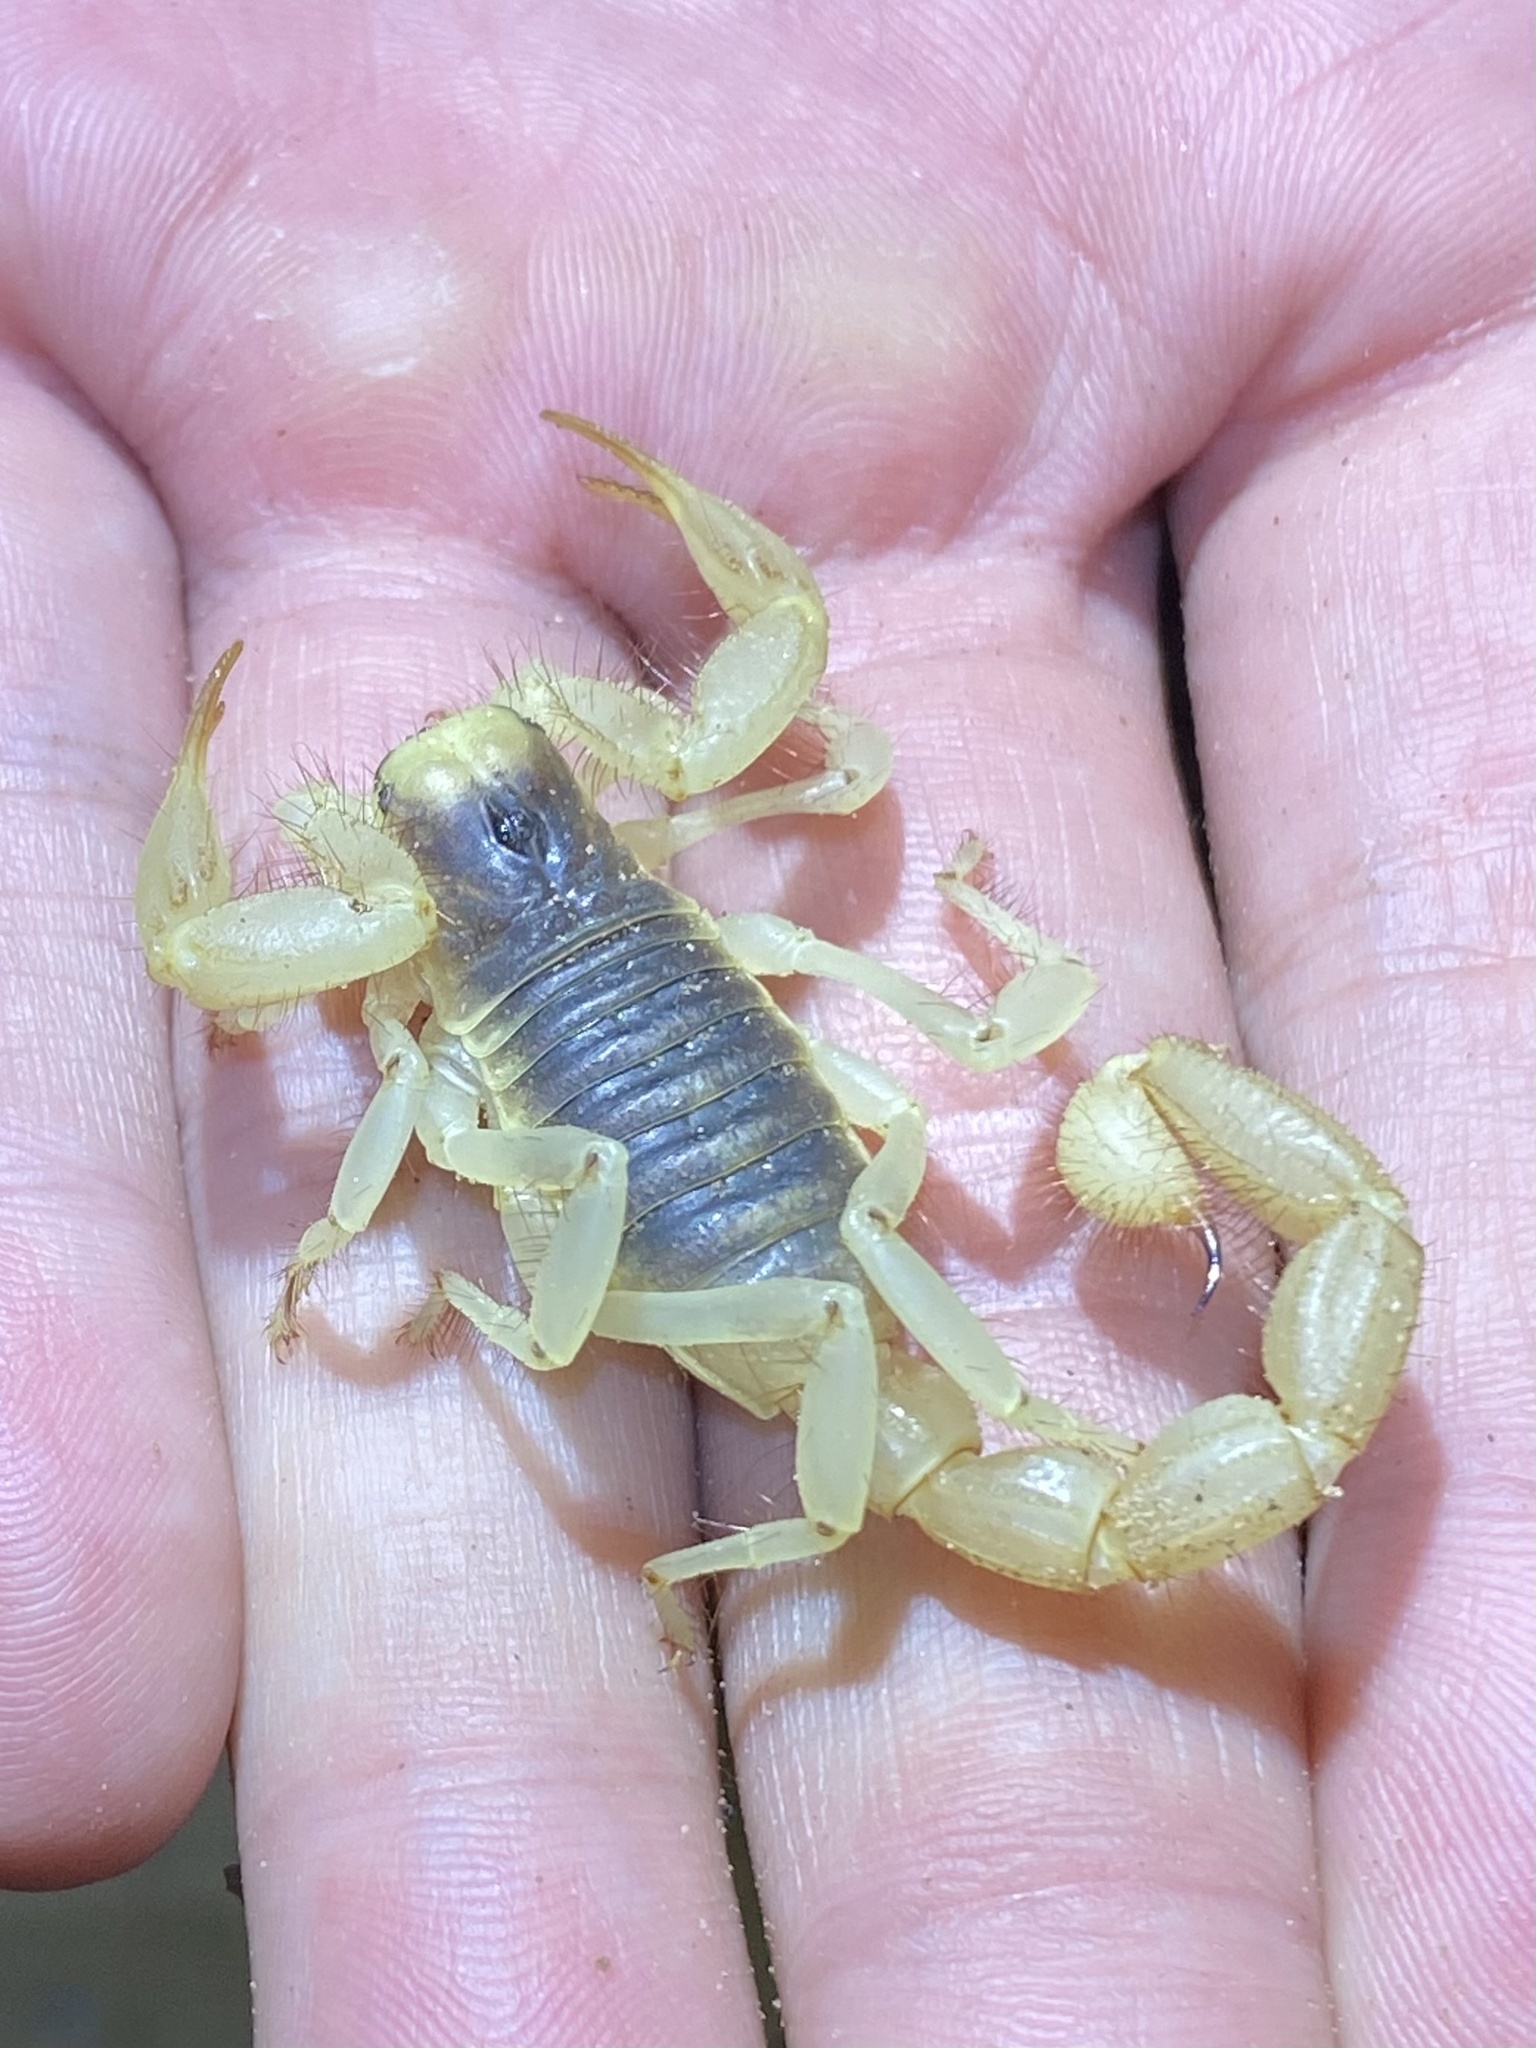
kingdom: Animalia
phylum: Arthropoda
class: Arachnida
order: Scorpiones
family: Hadruridae
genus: Hadrurus
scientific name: Hadrurus arizonensis
